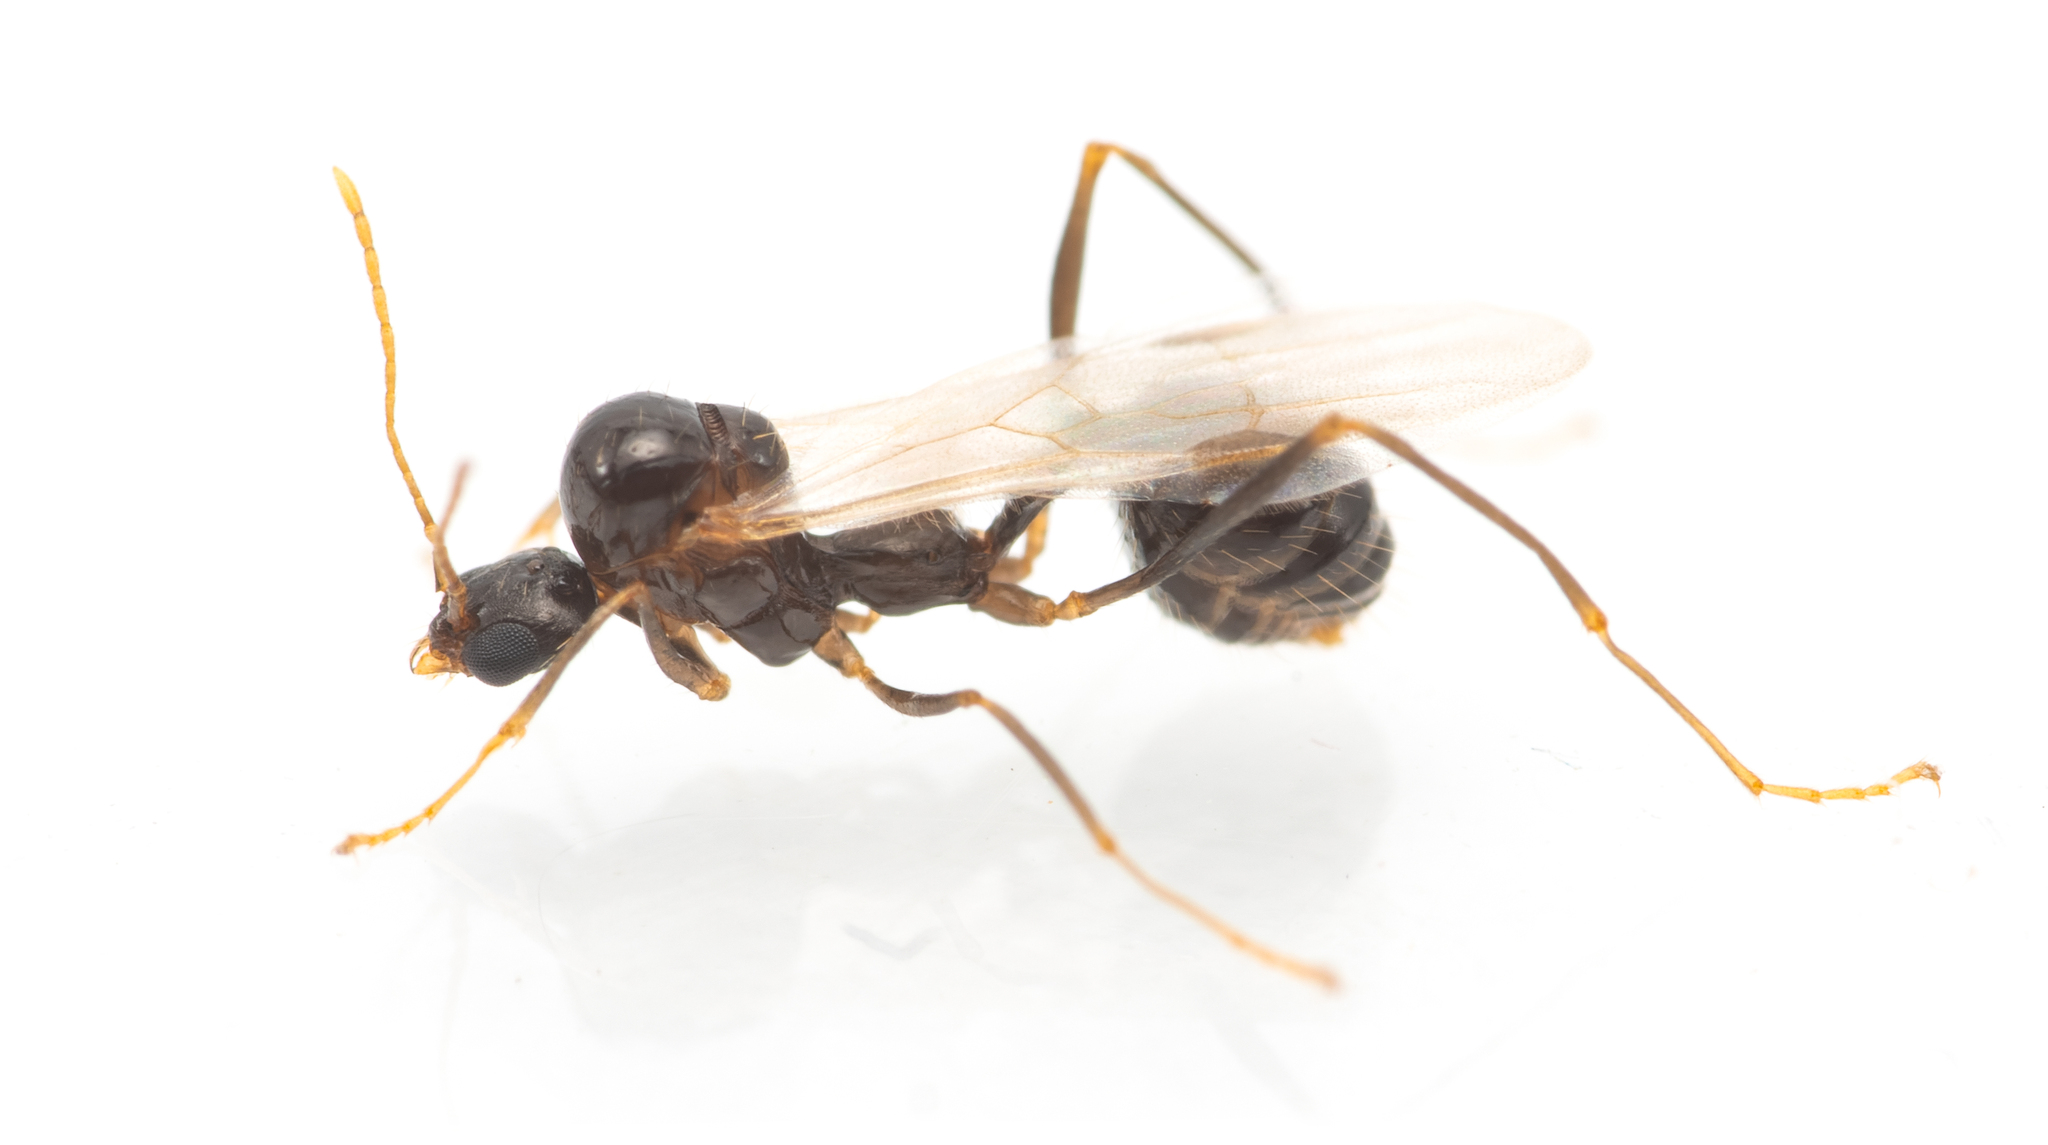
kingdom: Animalia
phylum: Arthropoda
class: Insecta
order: Hymenoptera
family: Formicidae
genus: Aphaenogaster
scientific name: Aphaenogaster gibbosa
